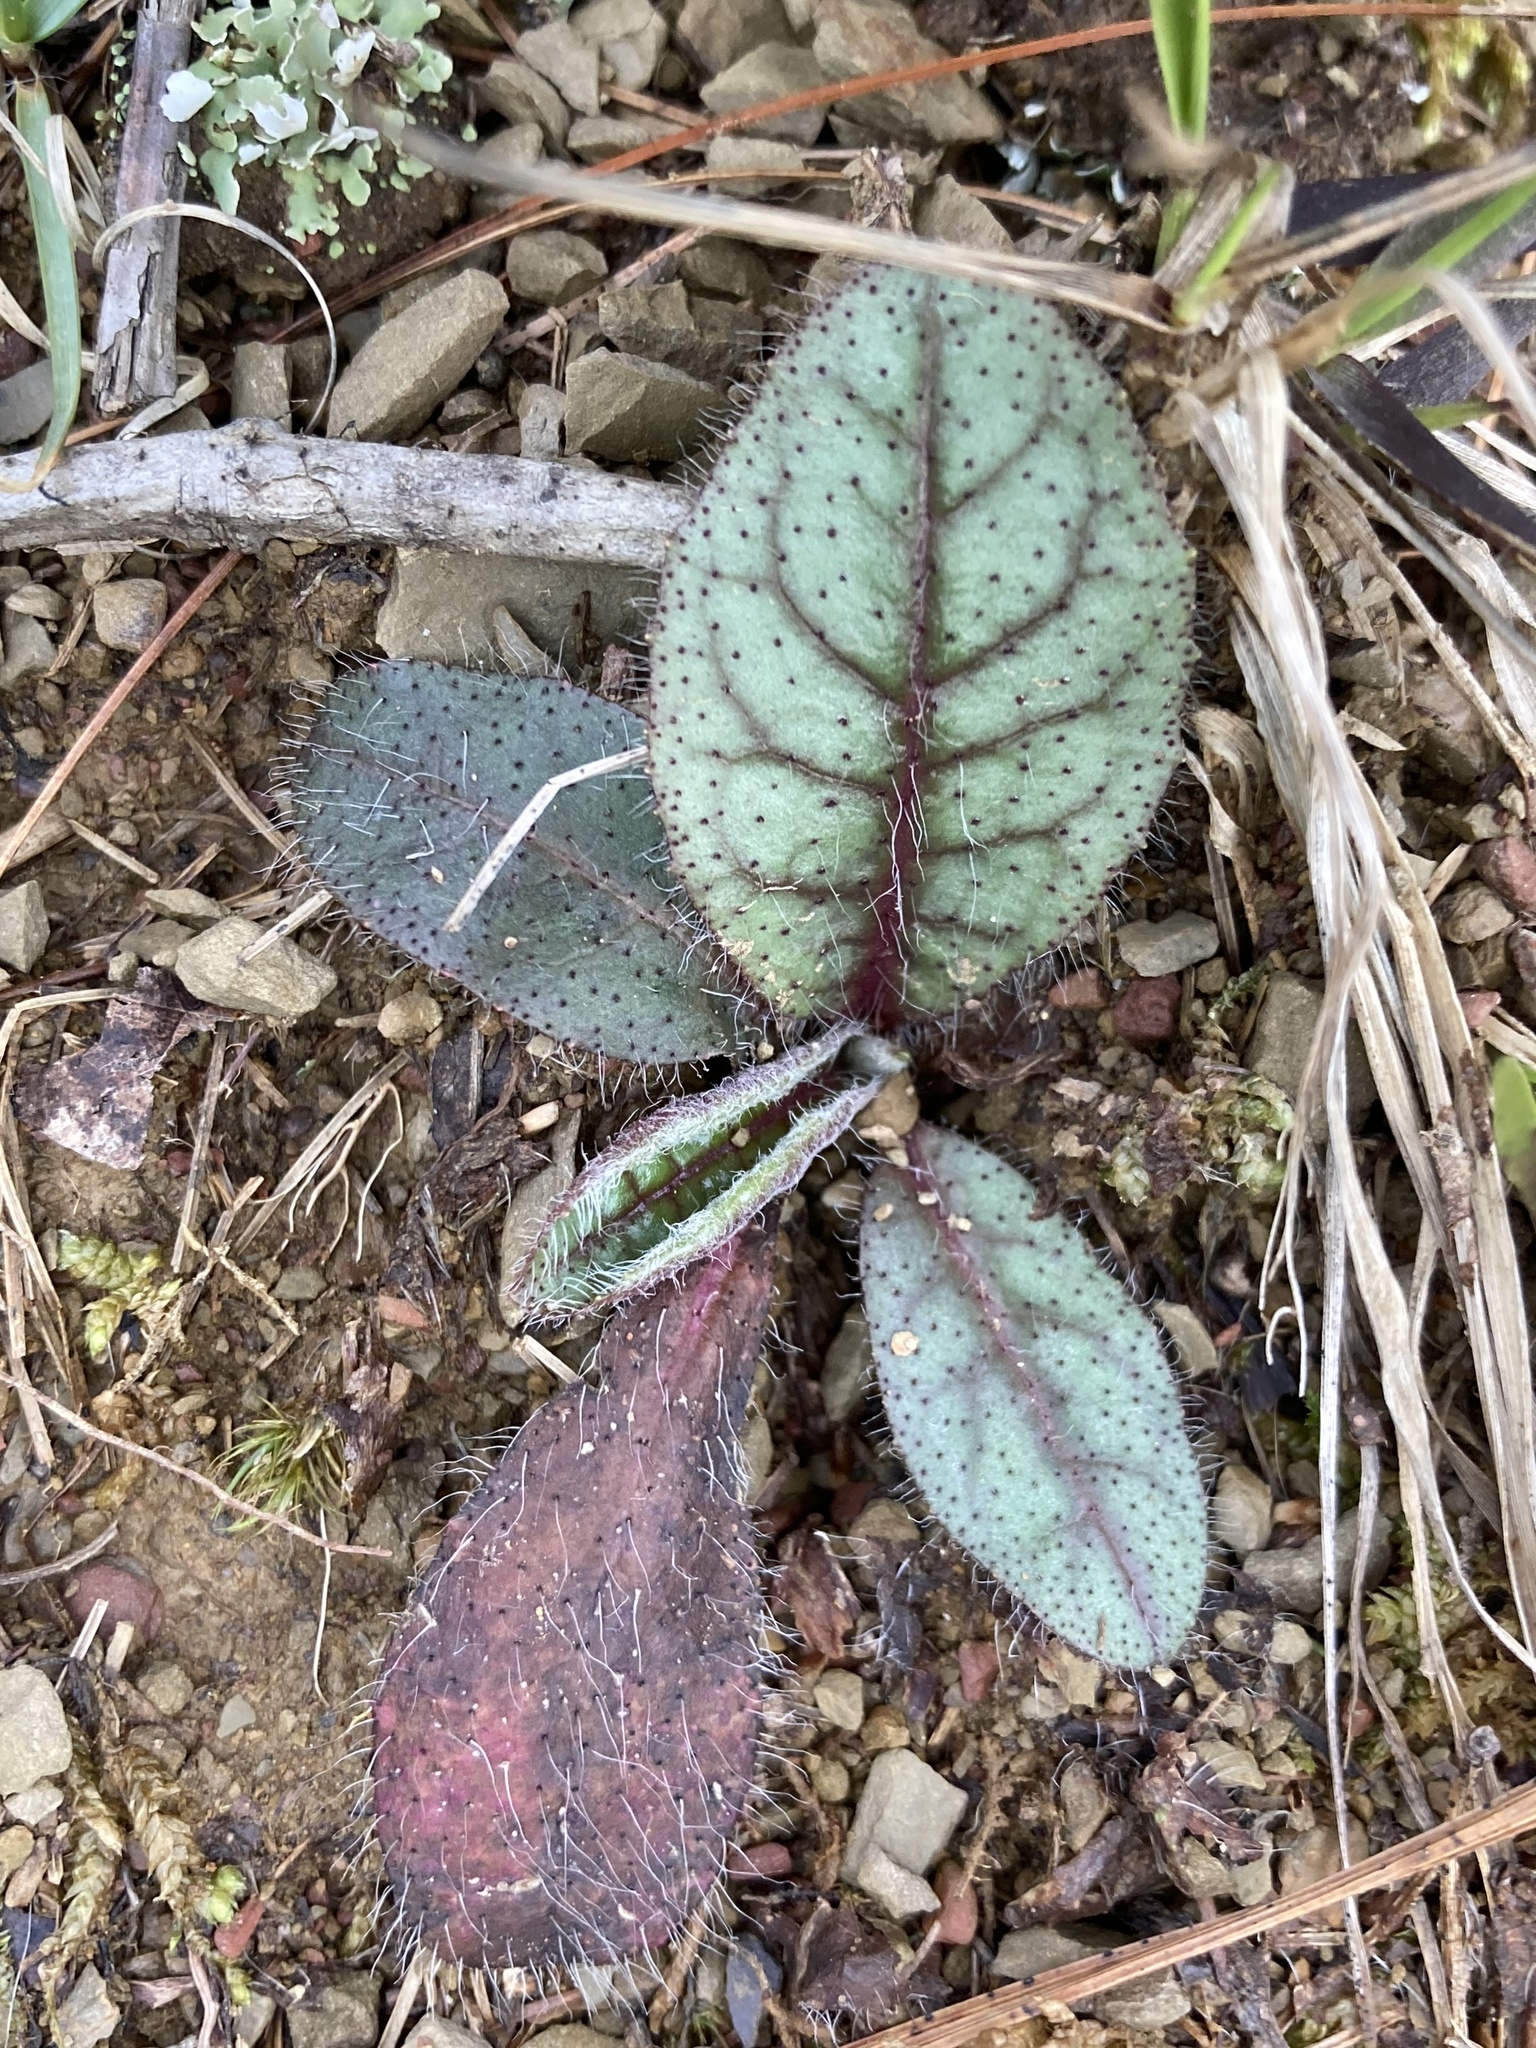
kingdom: Plantae
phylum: Tracheophyta
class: Magnoliopsida
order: Asterales
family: Asteraceae
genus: Hieracium
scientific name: Hieracium venosum
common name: Rattlesnake hawkweed
